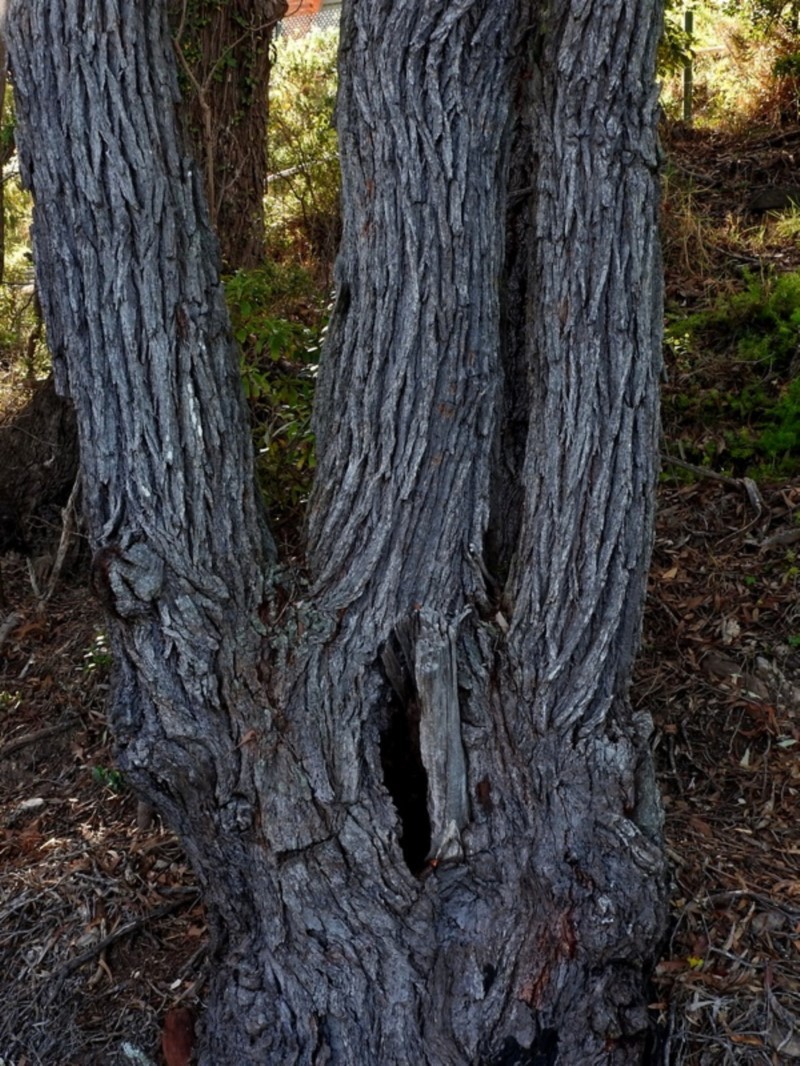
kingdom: Plantae
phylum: Tracheophyta
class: Magnoliopsida
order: Myrtales
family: Myrtaceae
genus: Eucalyptus
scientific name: Eucalyptus tricarpa
